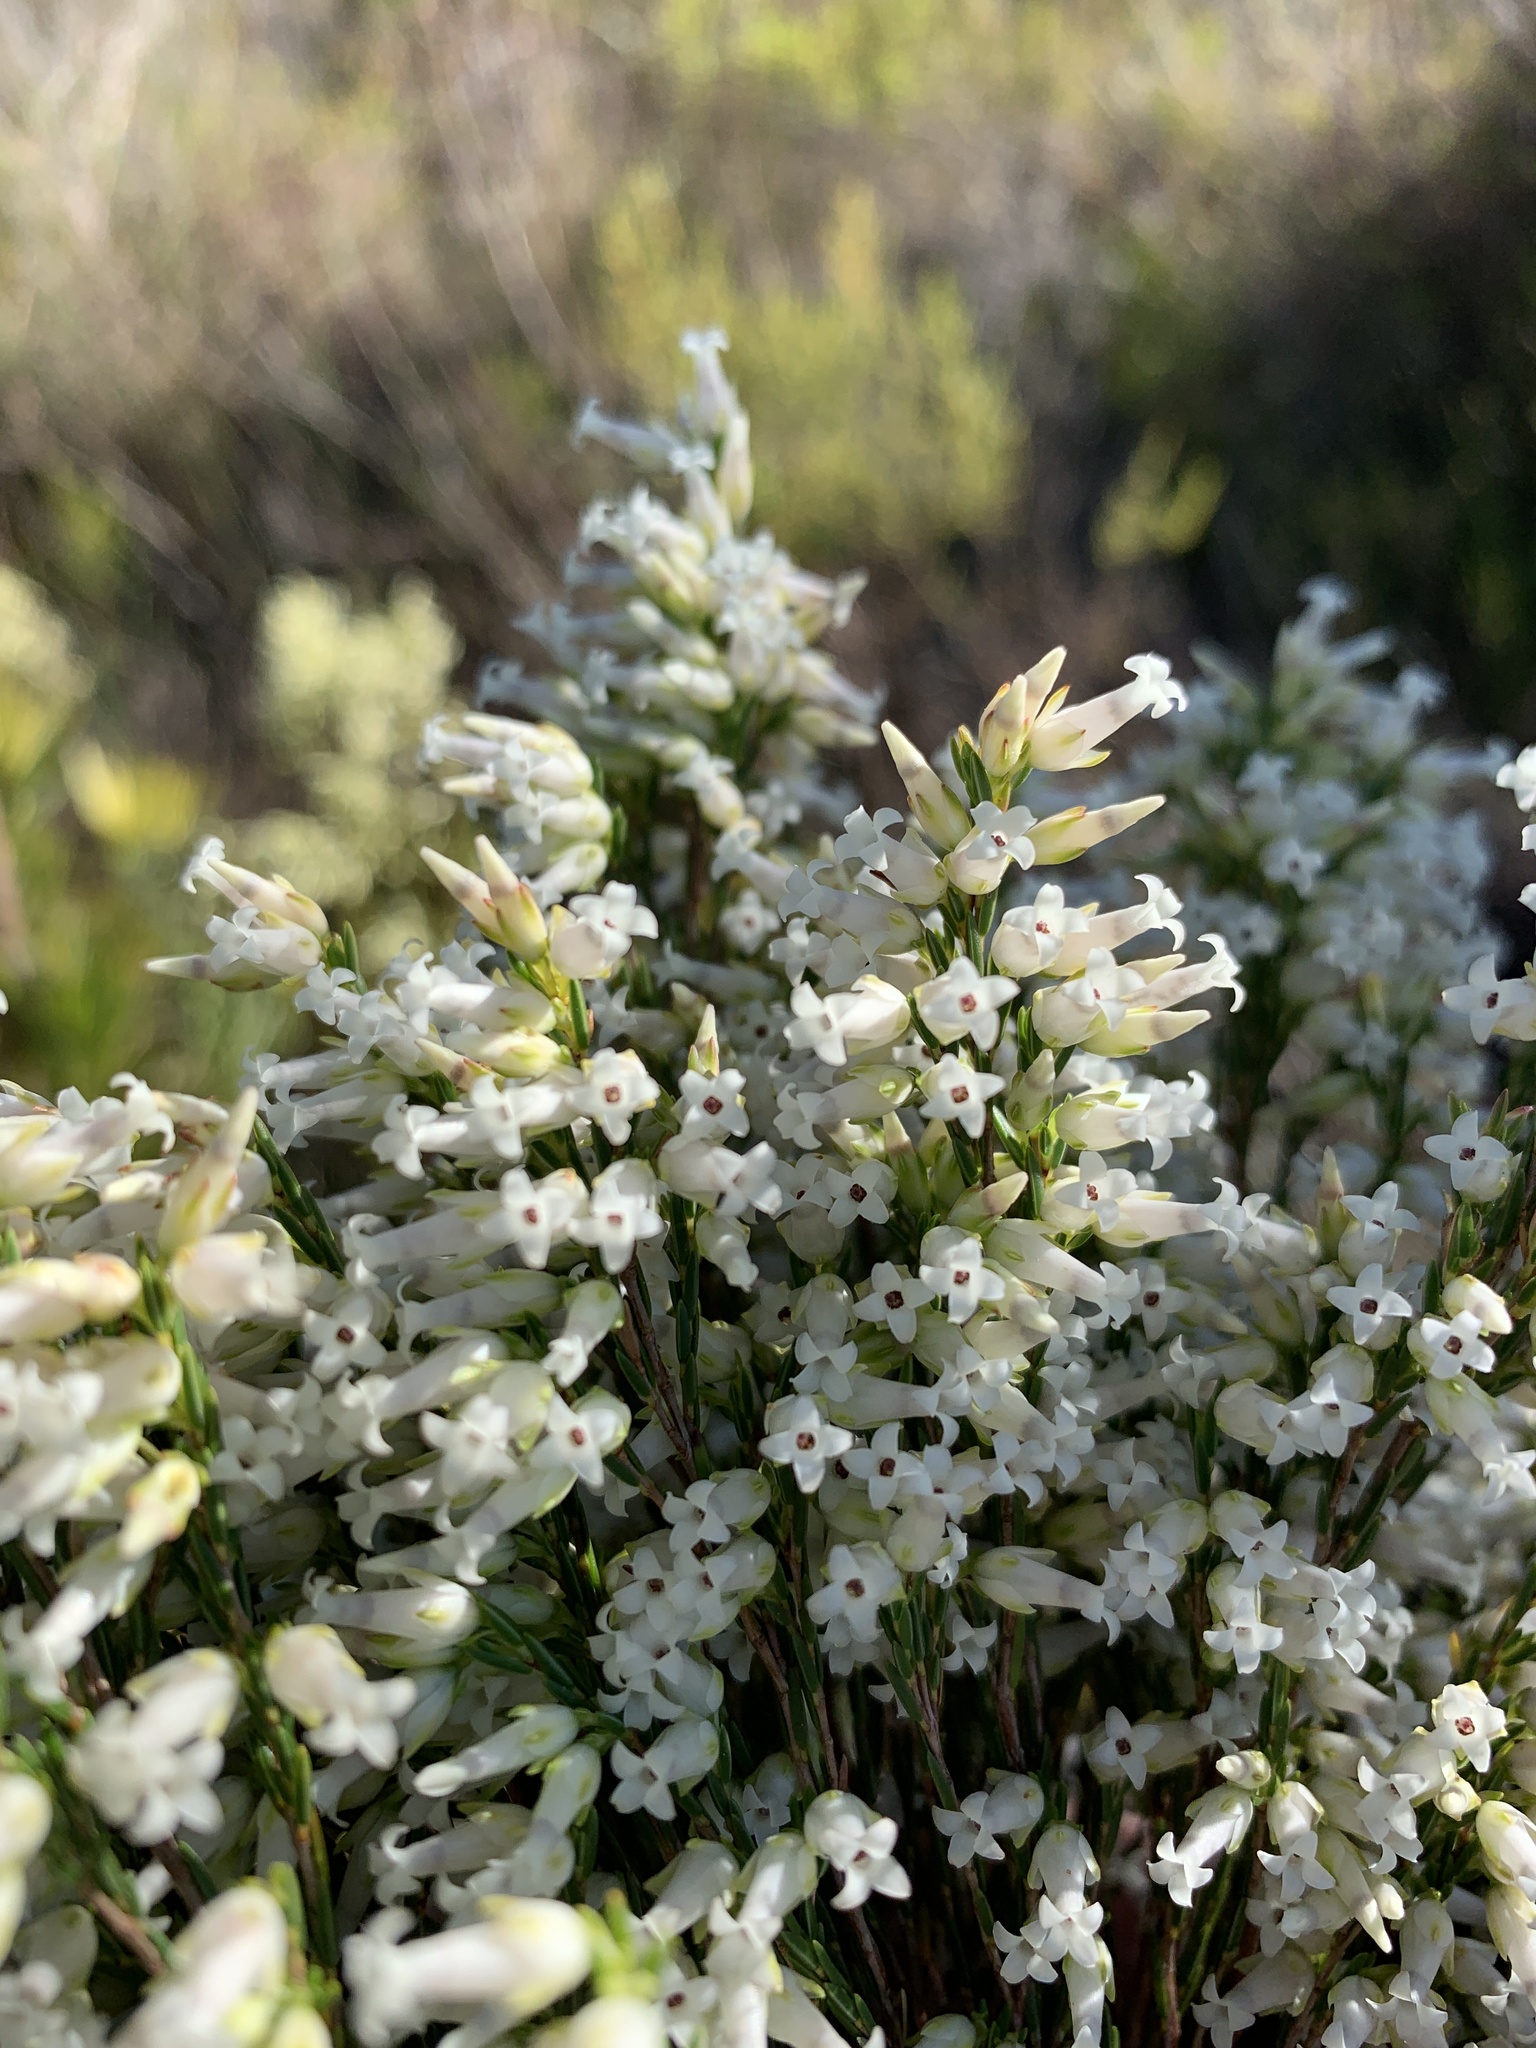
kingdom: Plantae
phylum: Tracheophyta
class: Magnoliopsida
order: Ericales
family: Ericaceae
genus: Erica
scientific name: Erica lutea
